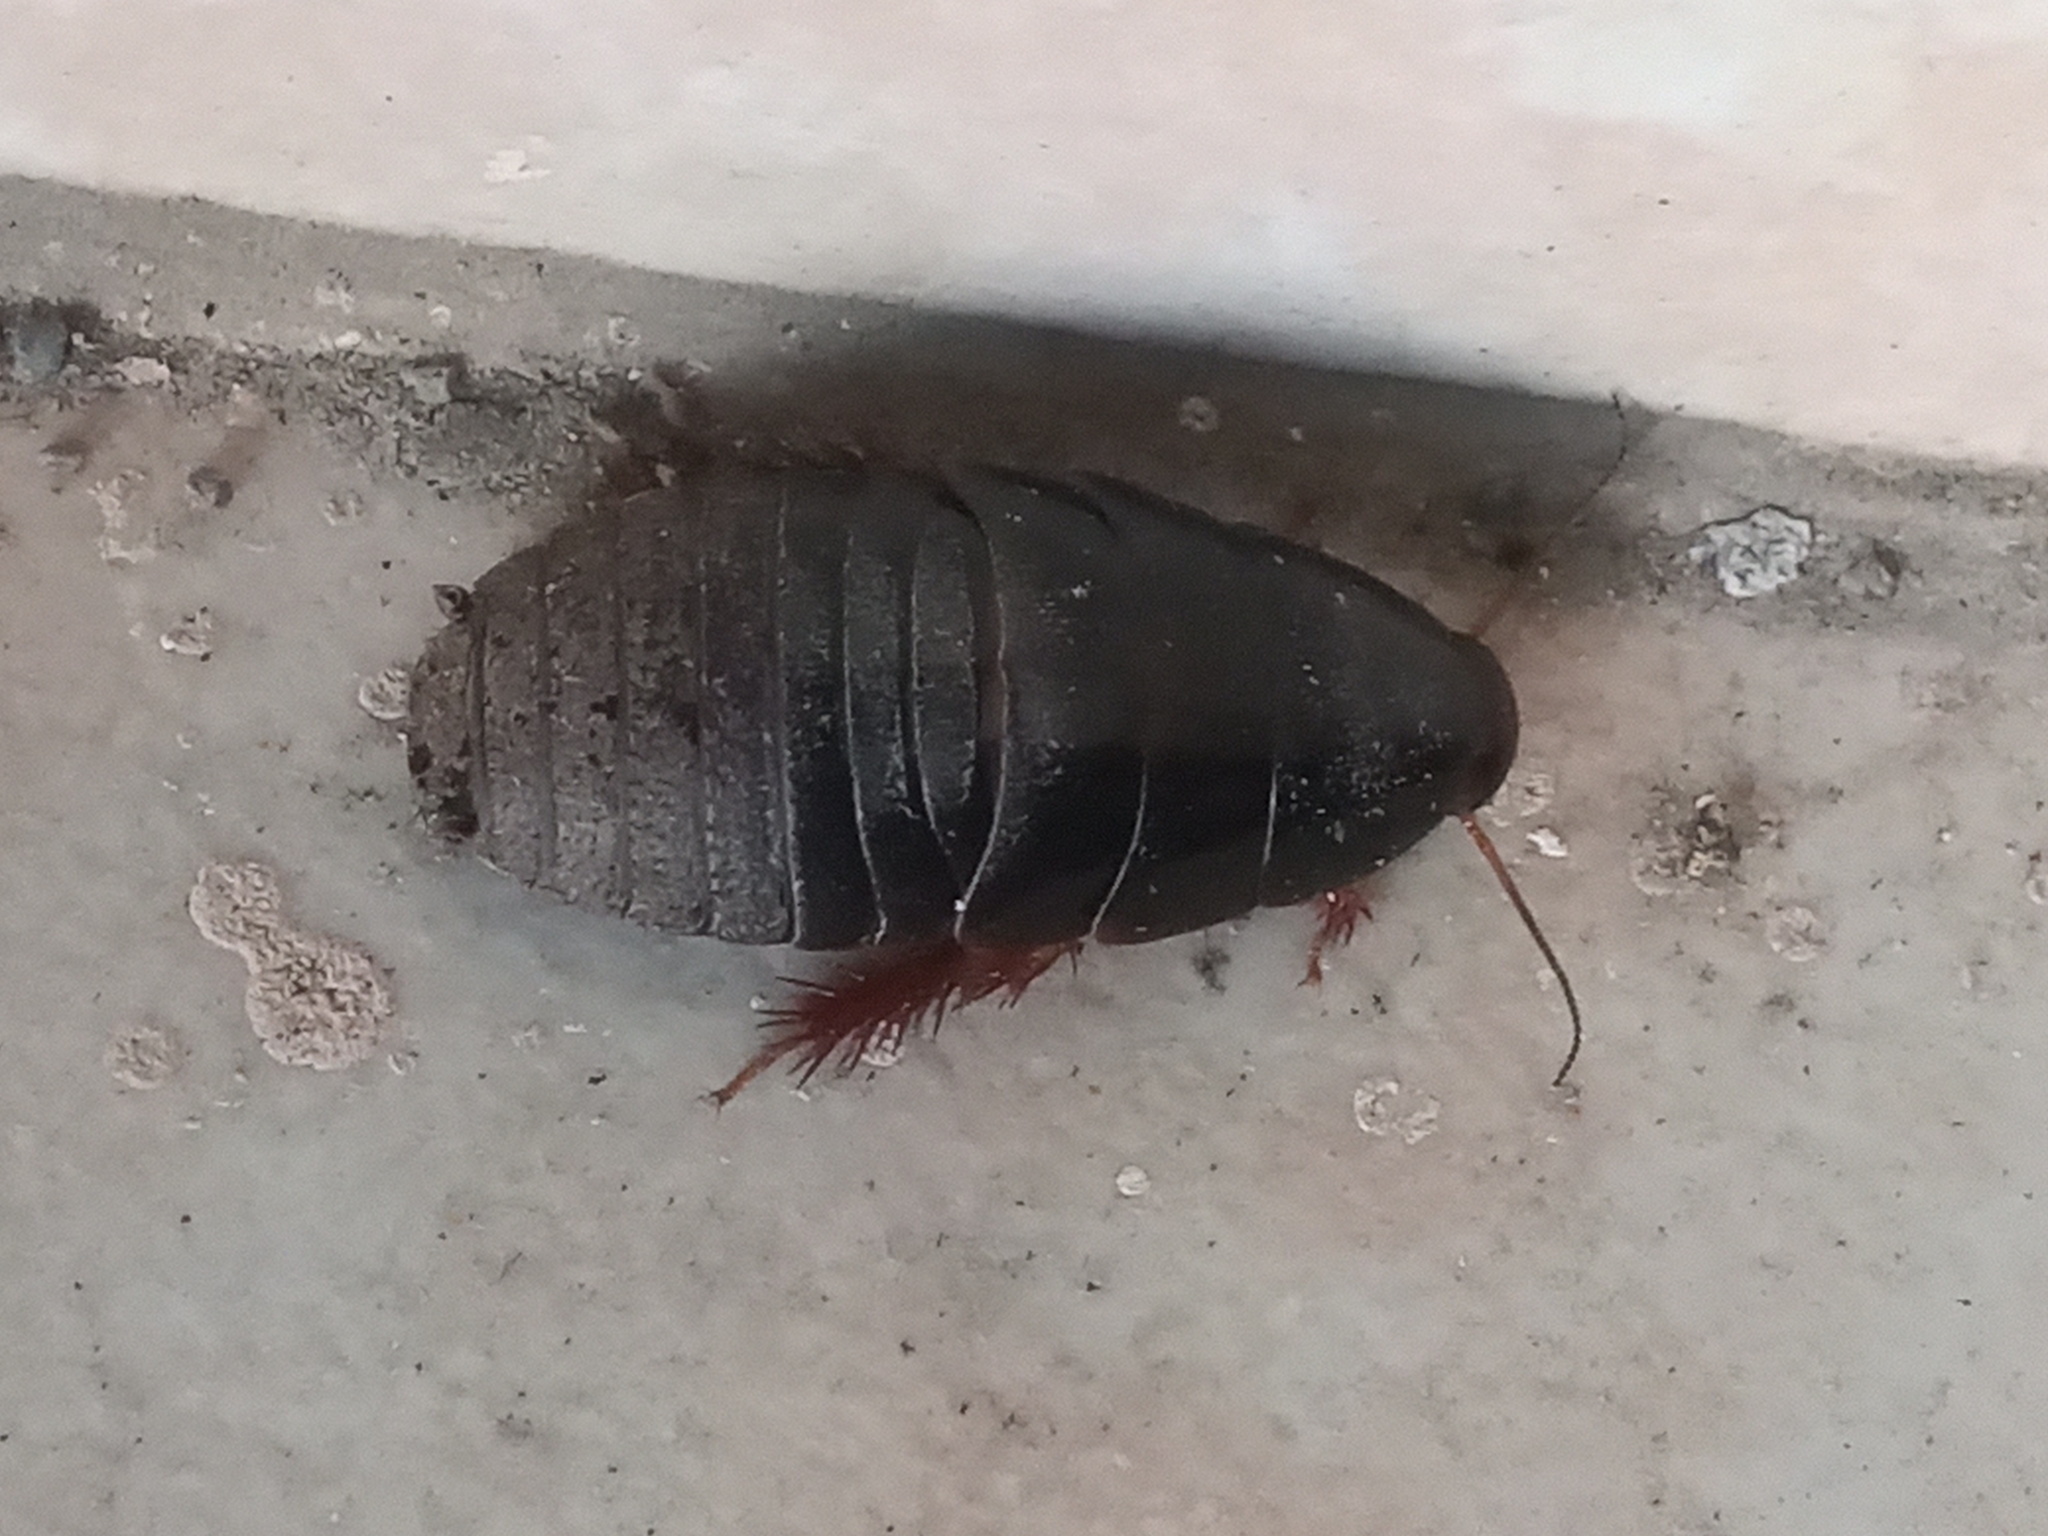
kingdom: Animalia
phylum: Arthropoda
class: Insecta
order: Blattodea
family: Blaberidae
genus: Pycnoscelus
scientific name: Pycnoscelus surinamensis
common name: Surinam cockroach
